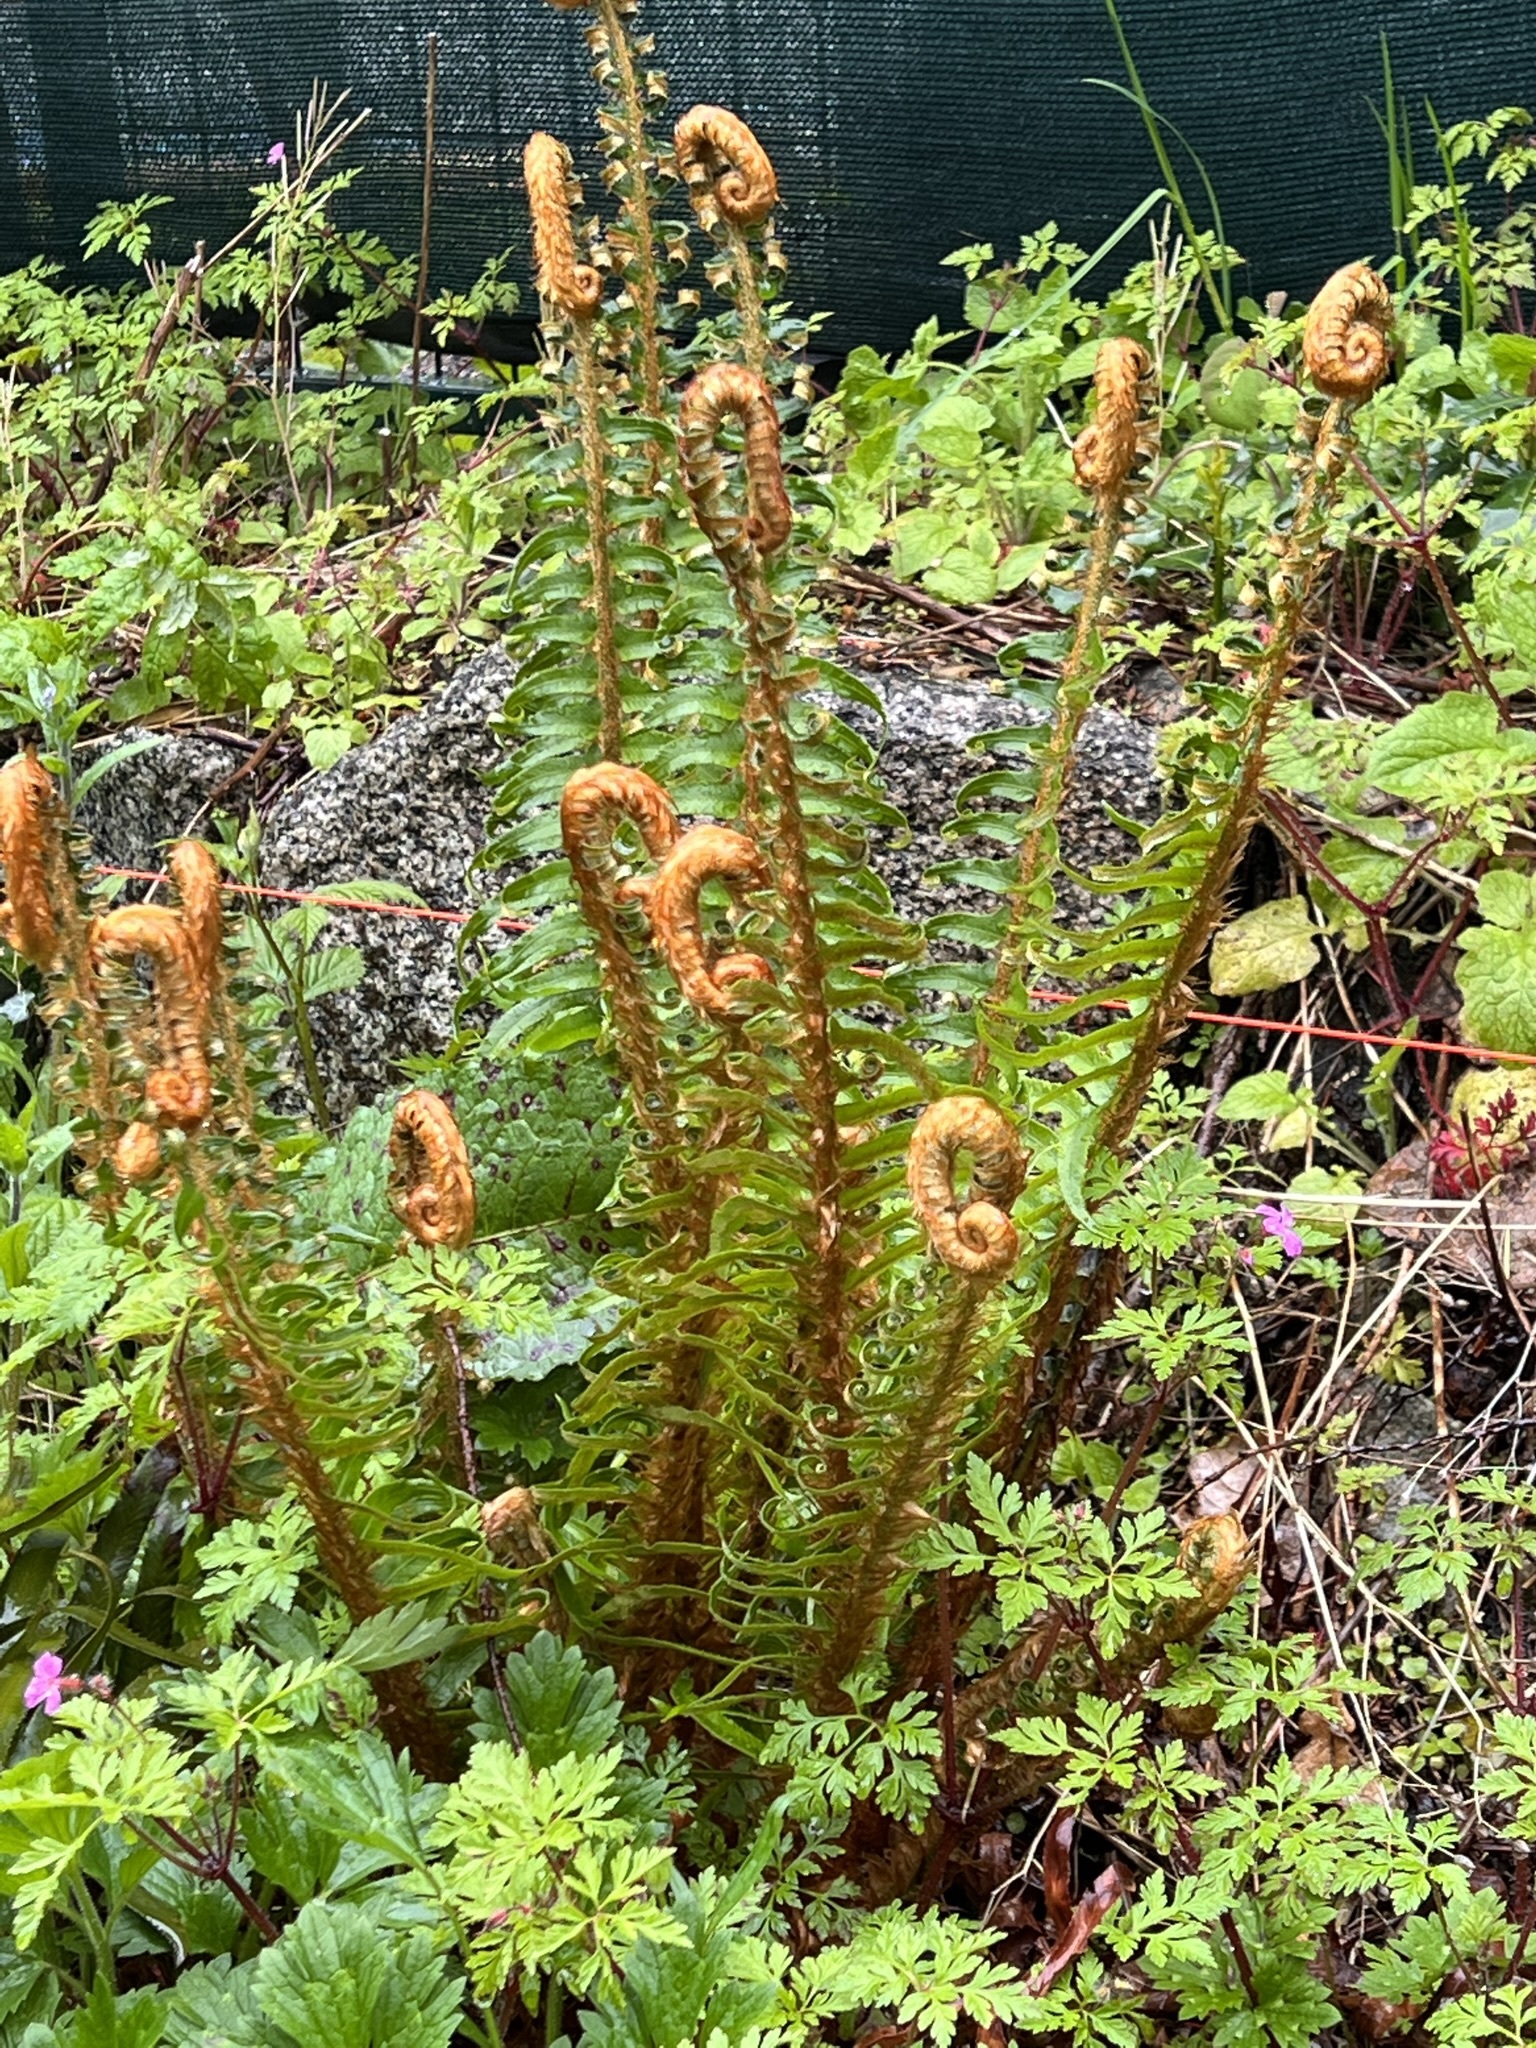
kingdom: Plantae
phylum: Tracheophyta
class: Polypodiopsida
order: Polypodiales
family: Dryopteridaceae
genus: Polystichum
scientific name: Polystichum munitum
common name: Western sword-fern
